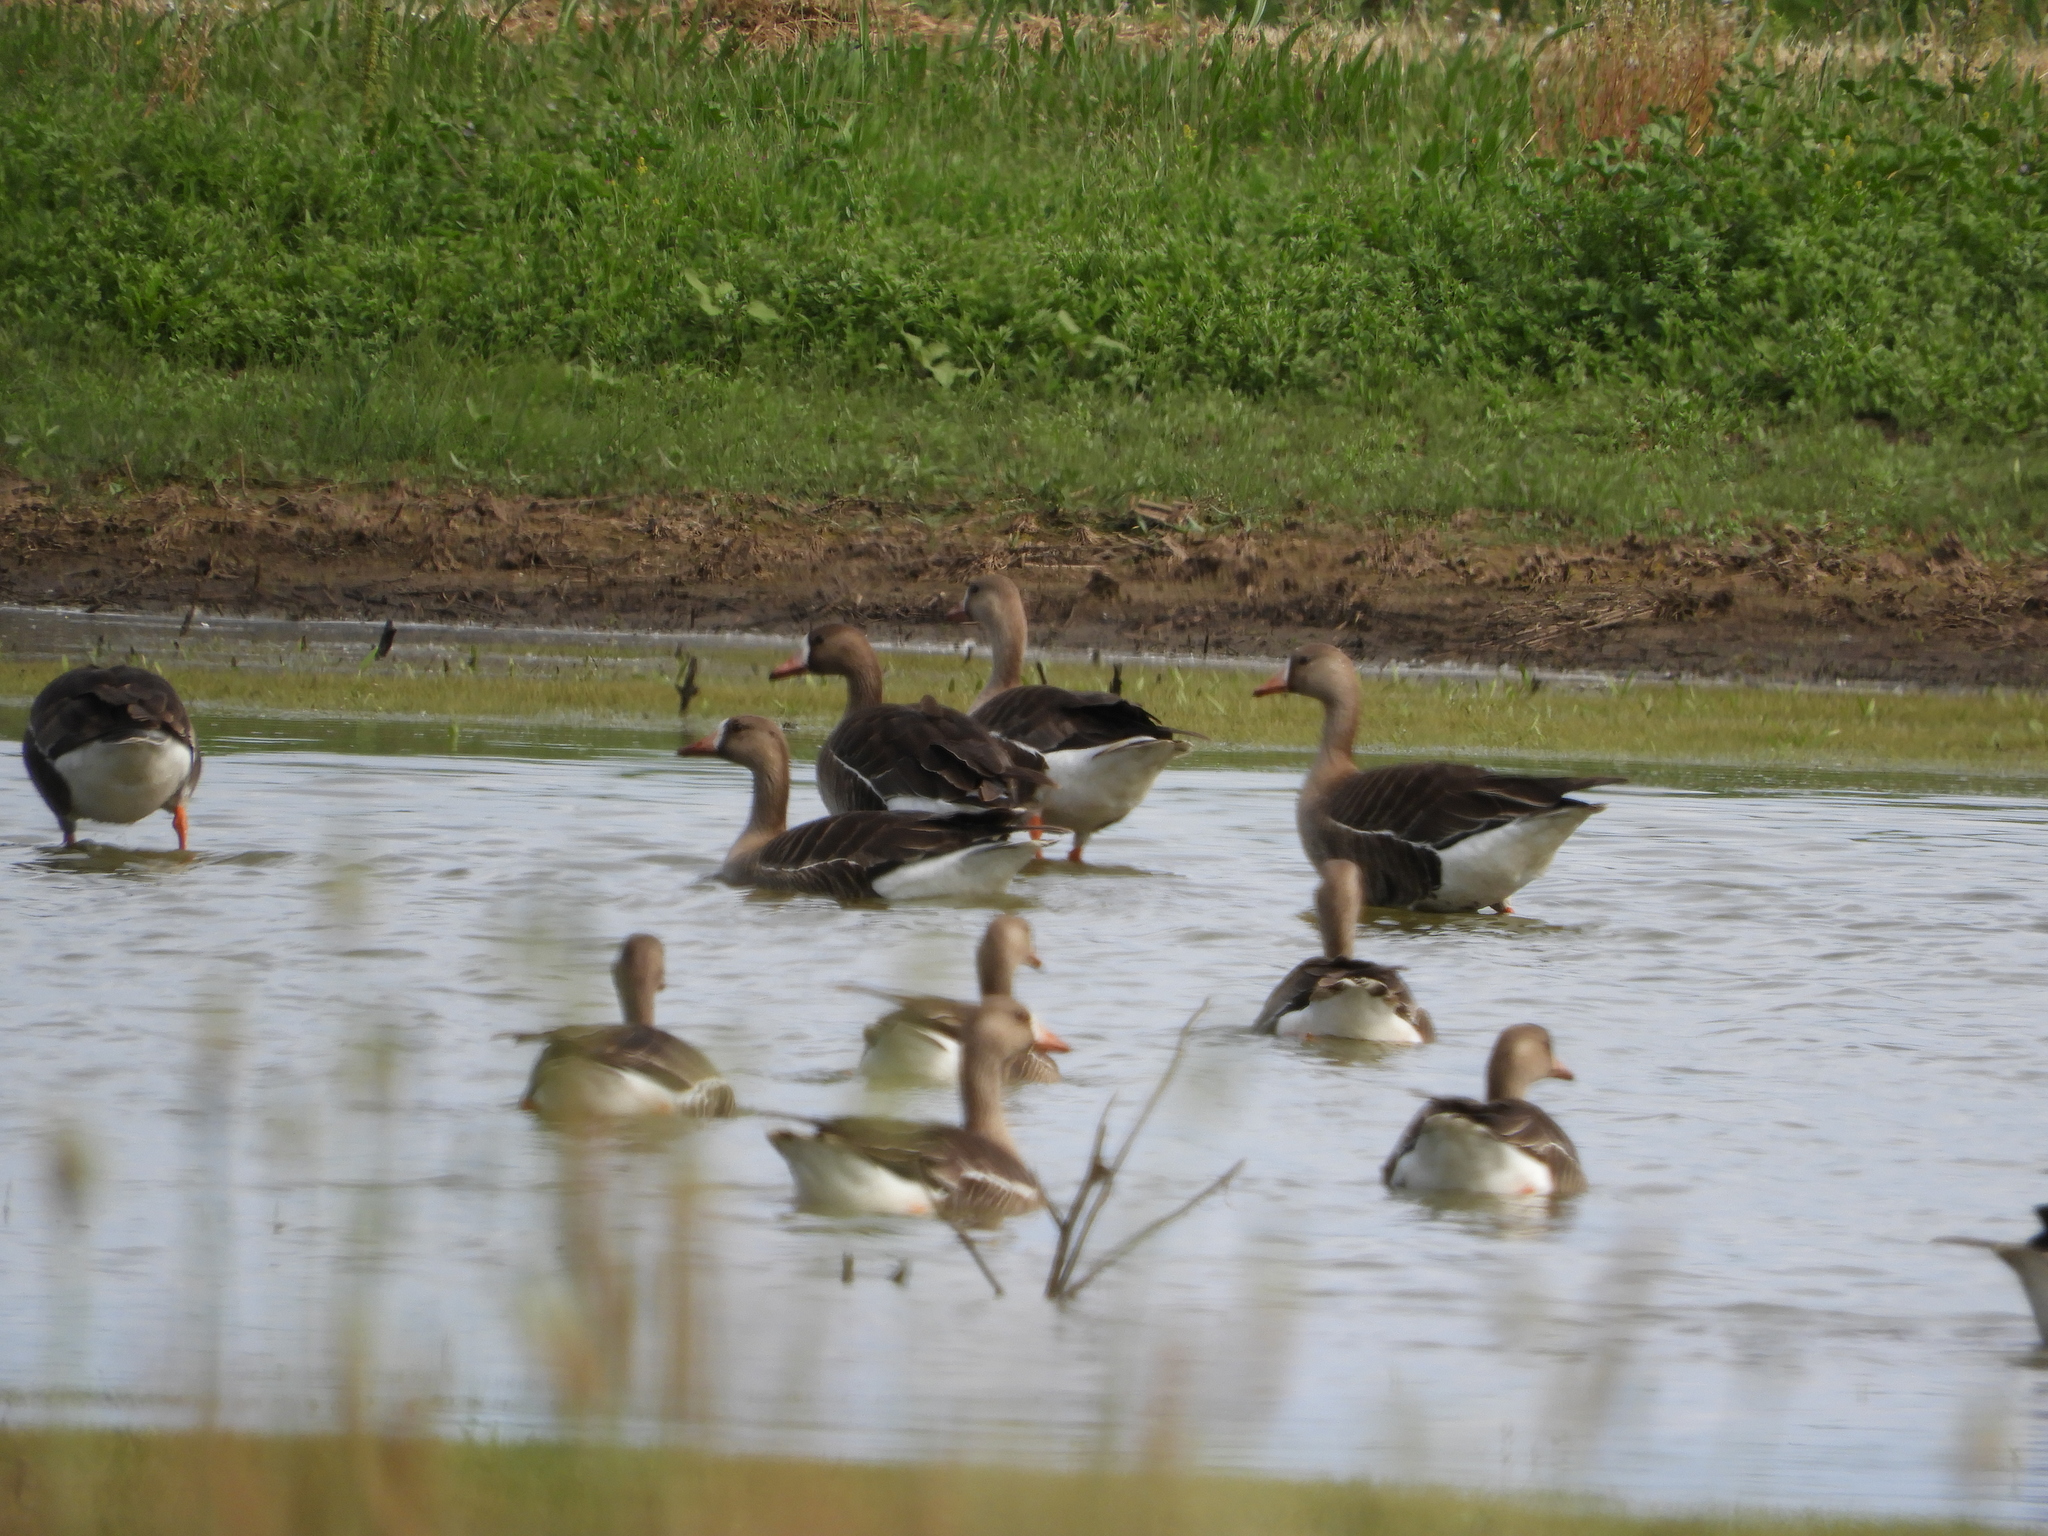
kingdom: Animalia
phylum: Chordata
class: Aves
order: Anseriformes
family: Anatidae
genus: Anser
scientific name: Anser albifrons
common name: Greater white-fronted goose
